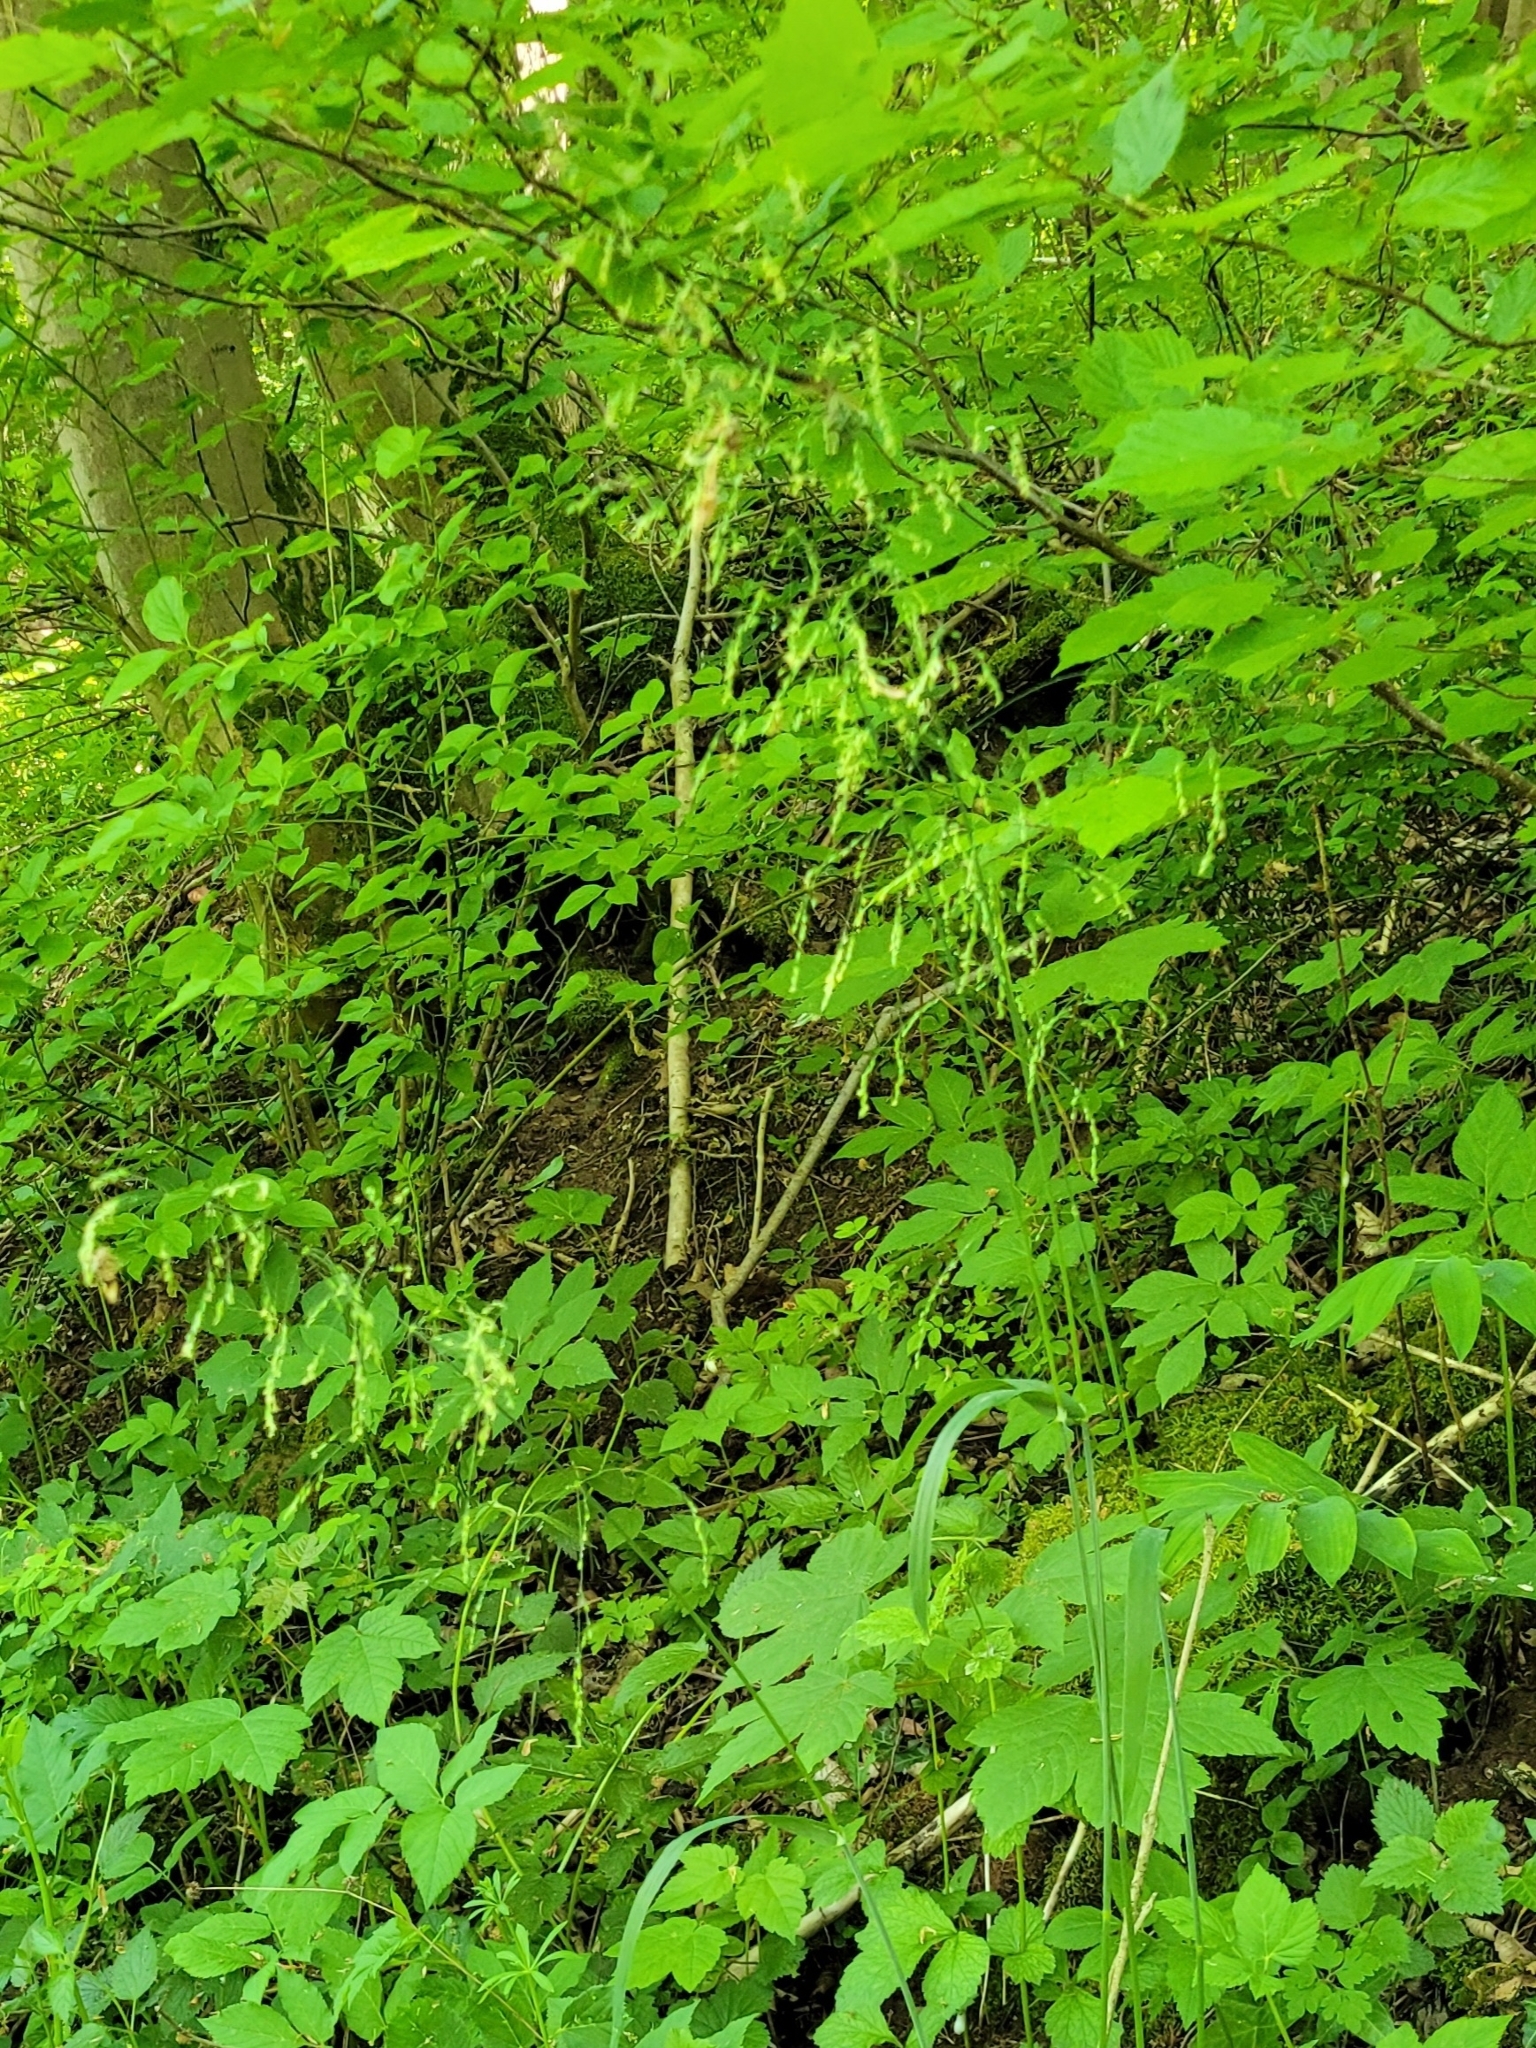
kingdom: Plantae
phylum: Tracheophyta
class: Liliopsida
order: Poales
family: Poaceae
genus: Milium
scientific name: Milium effusum
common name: Wood millet
